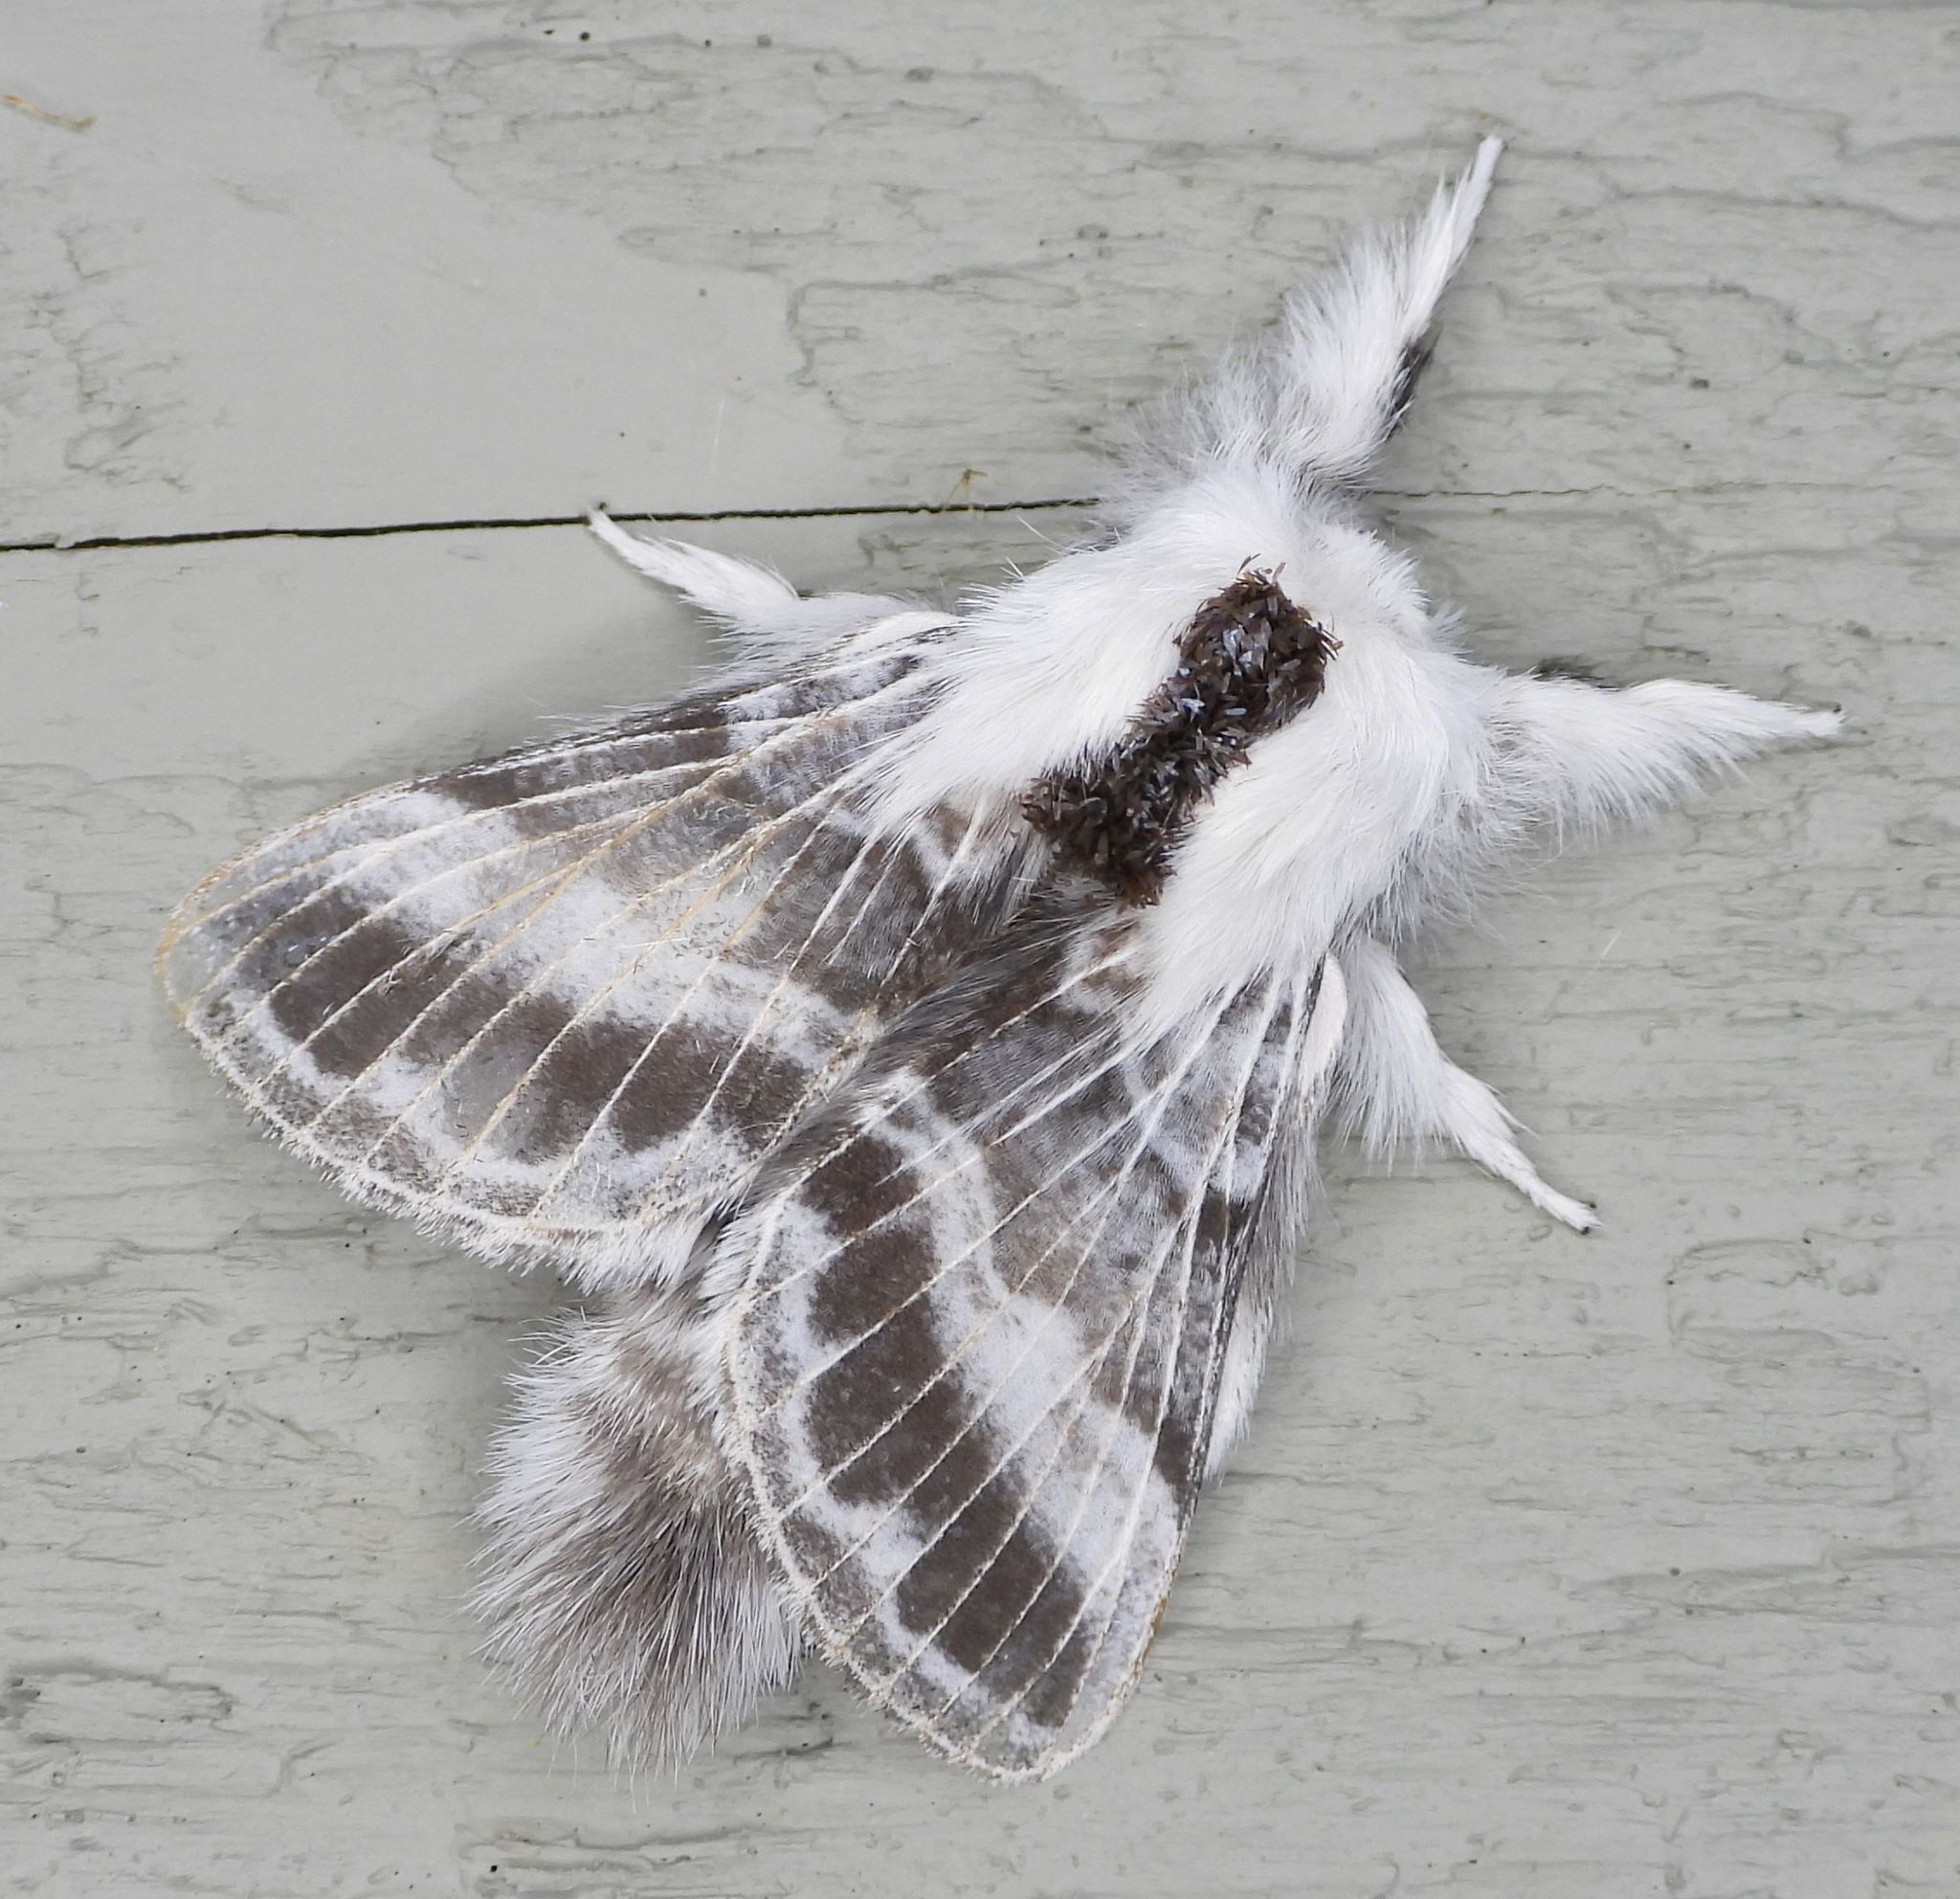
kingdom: Animalia
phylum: Arthropoda
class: Insecta
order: Lepidoptera
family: Lasiocampidae
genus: Tolype
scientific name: Tolype velleda
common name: Large tolype moth
